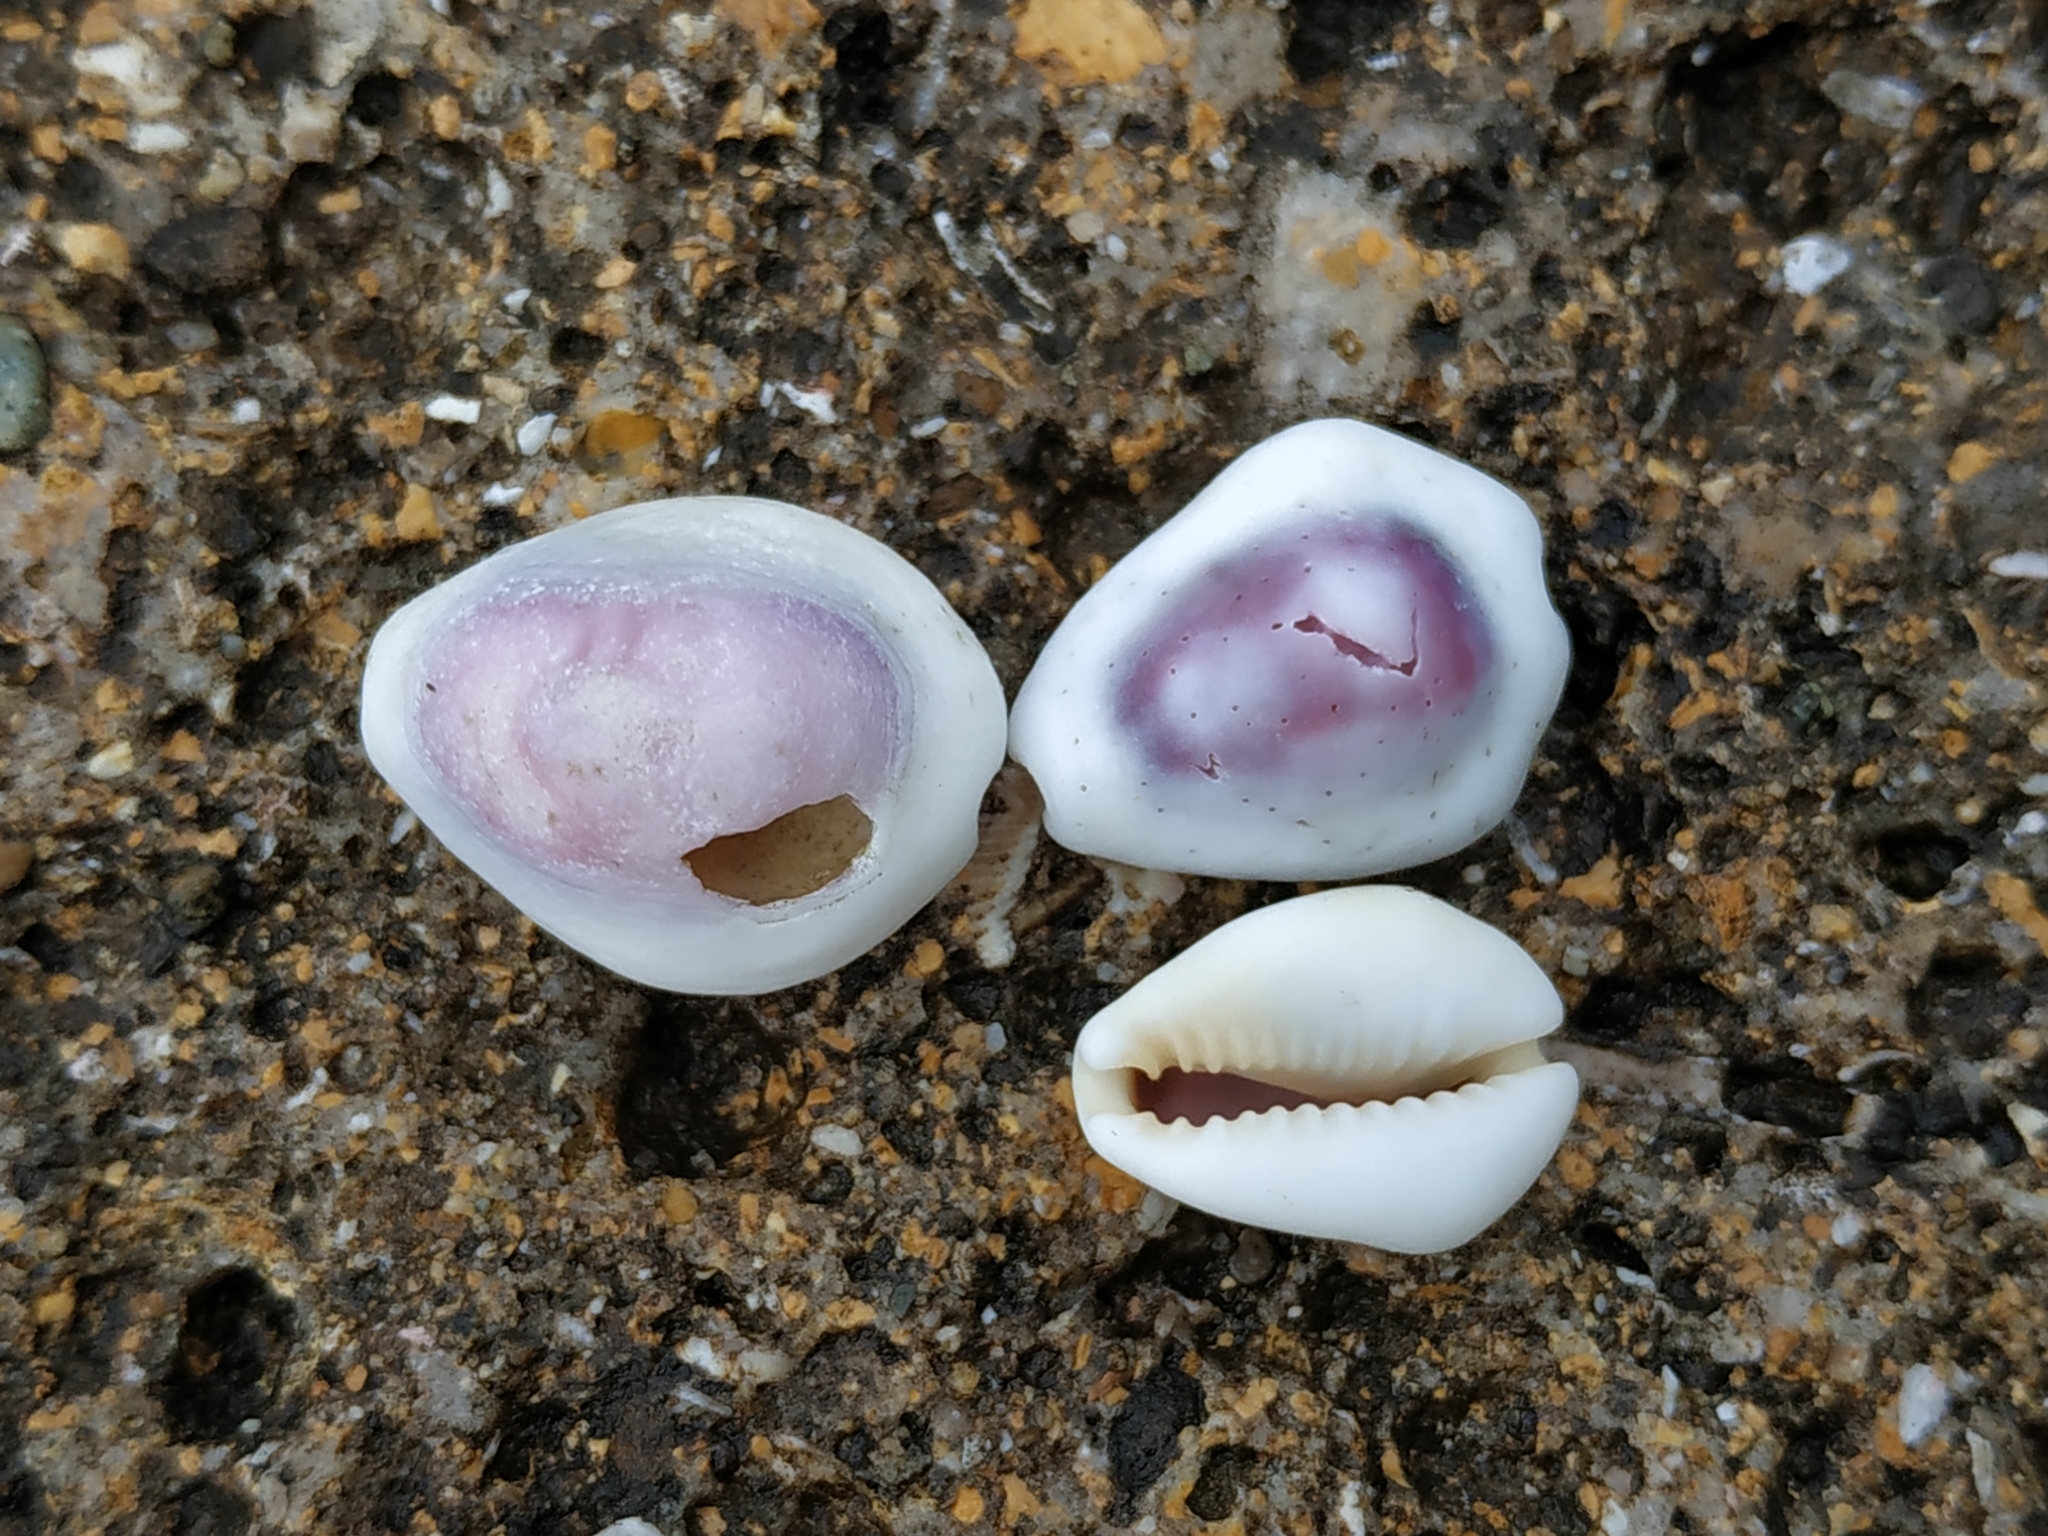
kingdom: Animalia
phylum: Mollusca
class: Gastropoda
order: Littorinimorpha
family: Cypraeidae
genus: Monetaria
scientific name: Monetaria moneta
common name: Money cowrie
